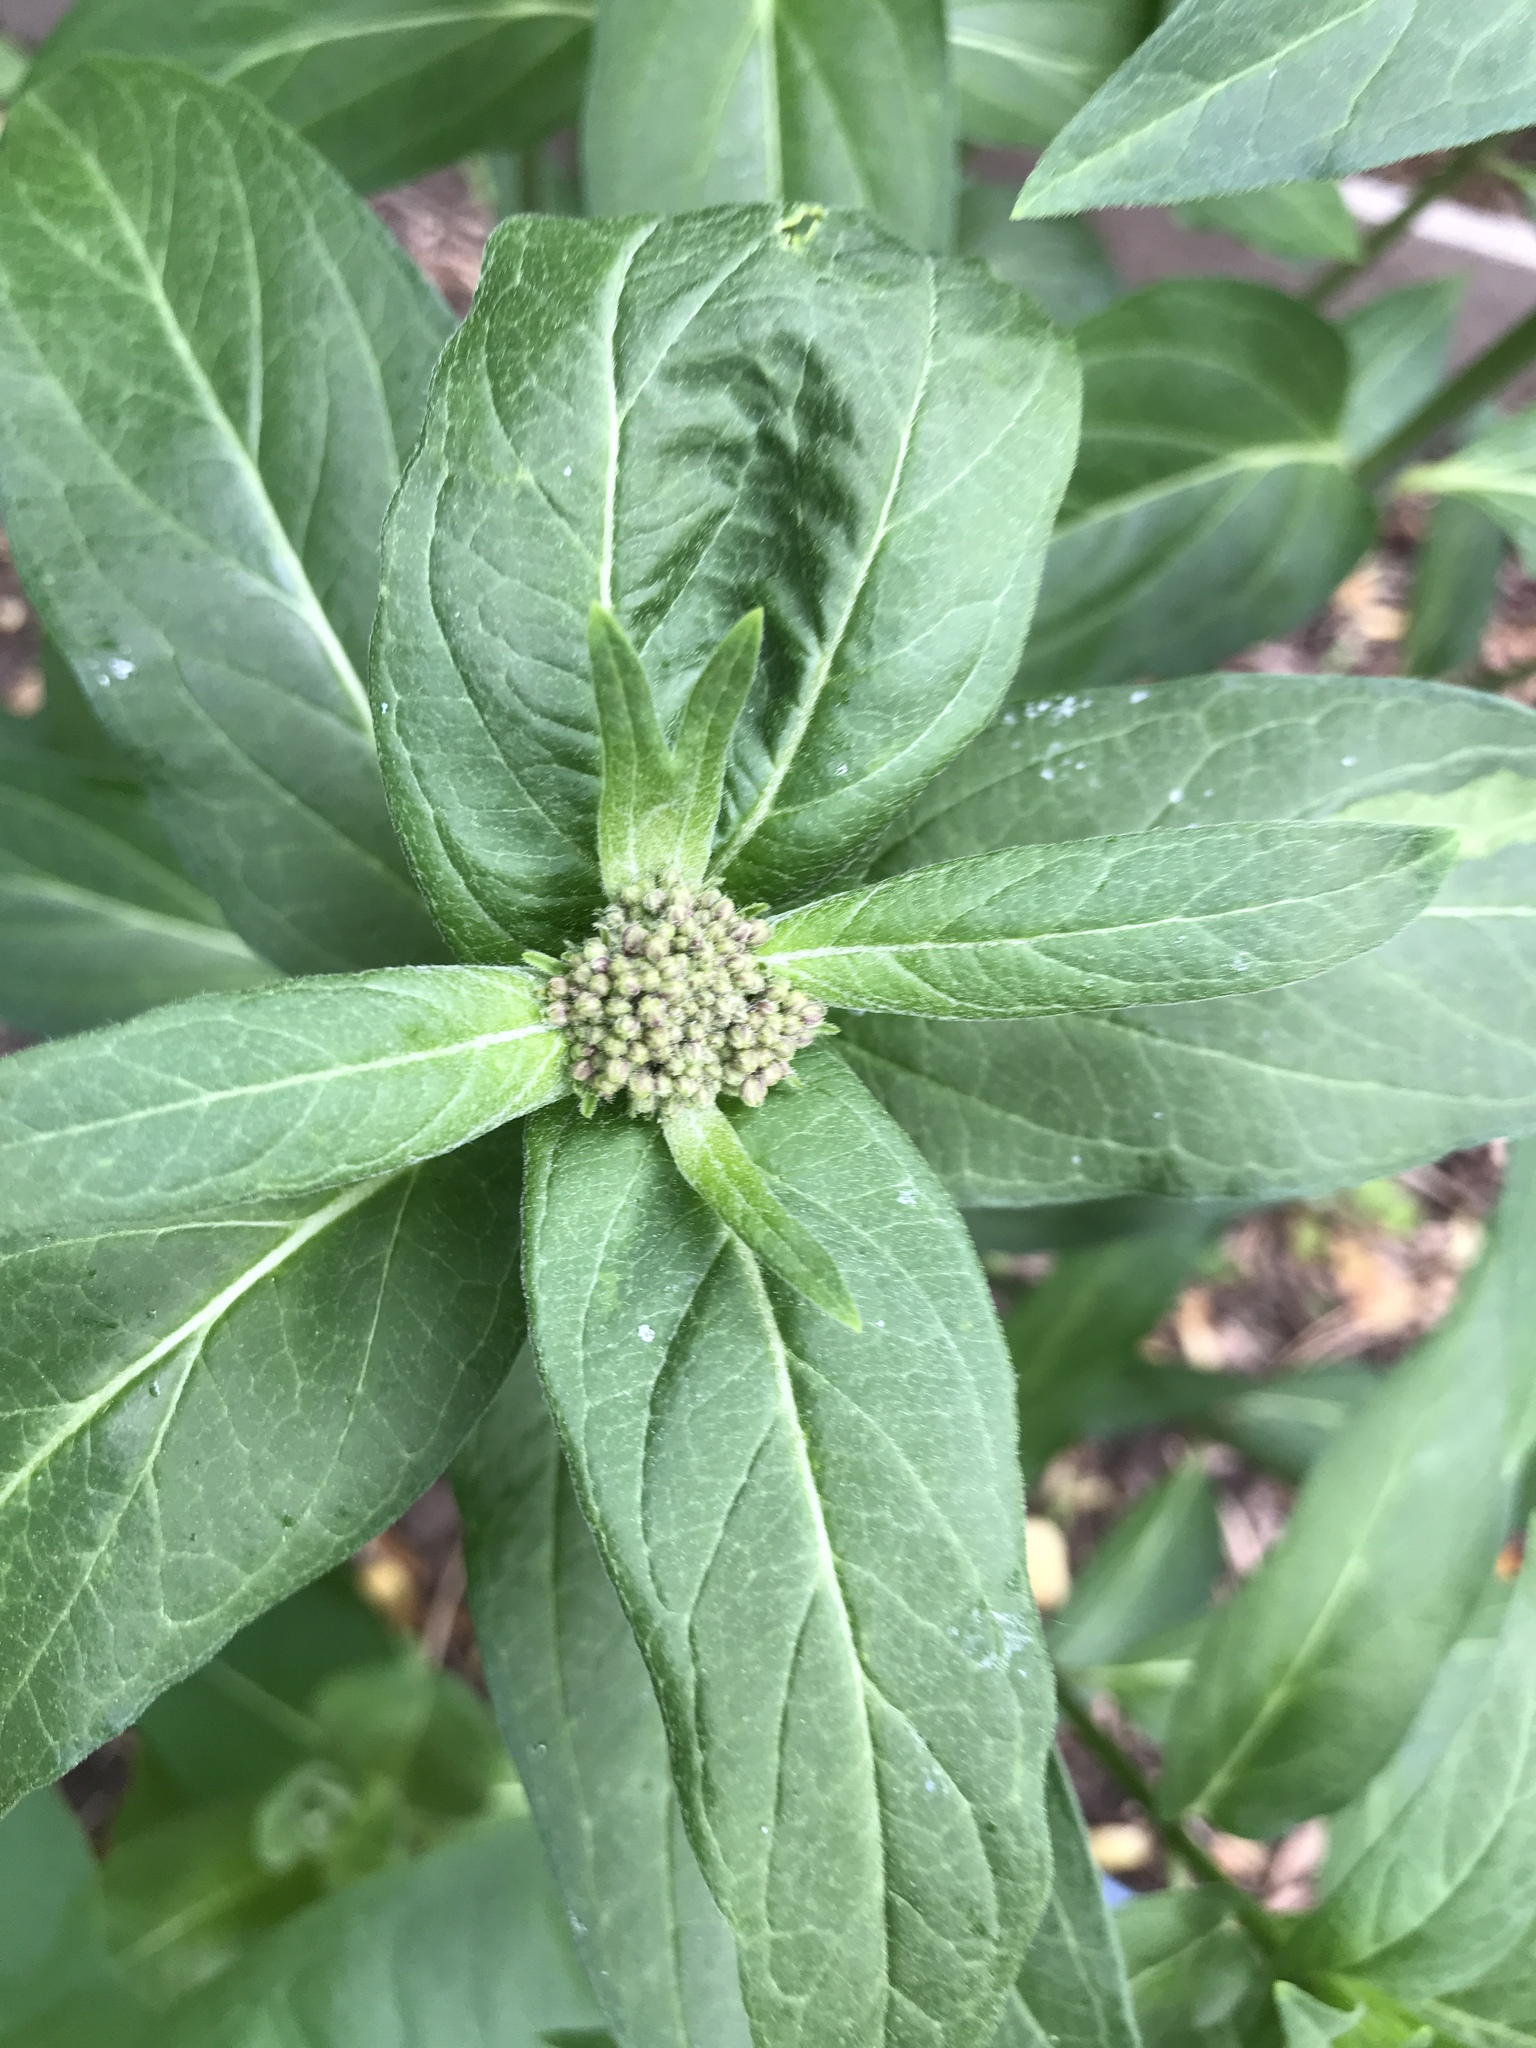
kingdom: Plantae
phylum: Tracheophyta
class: Magnoliopsida
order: Gentianales
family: Apocynaceae
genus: Asclepias
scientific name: Asclepias incarnata
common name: Swamp milkweed
